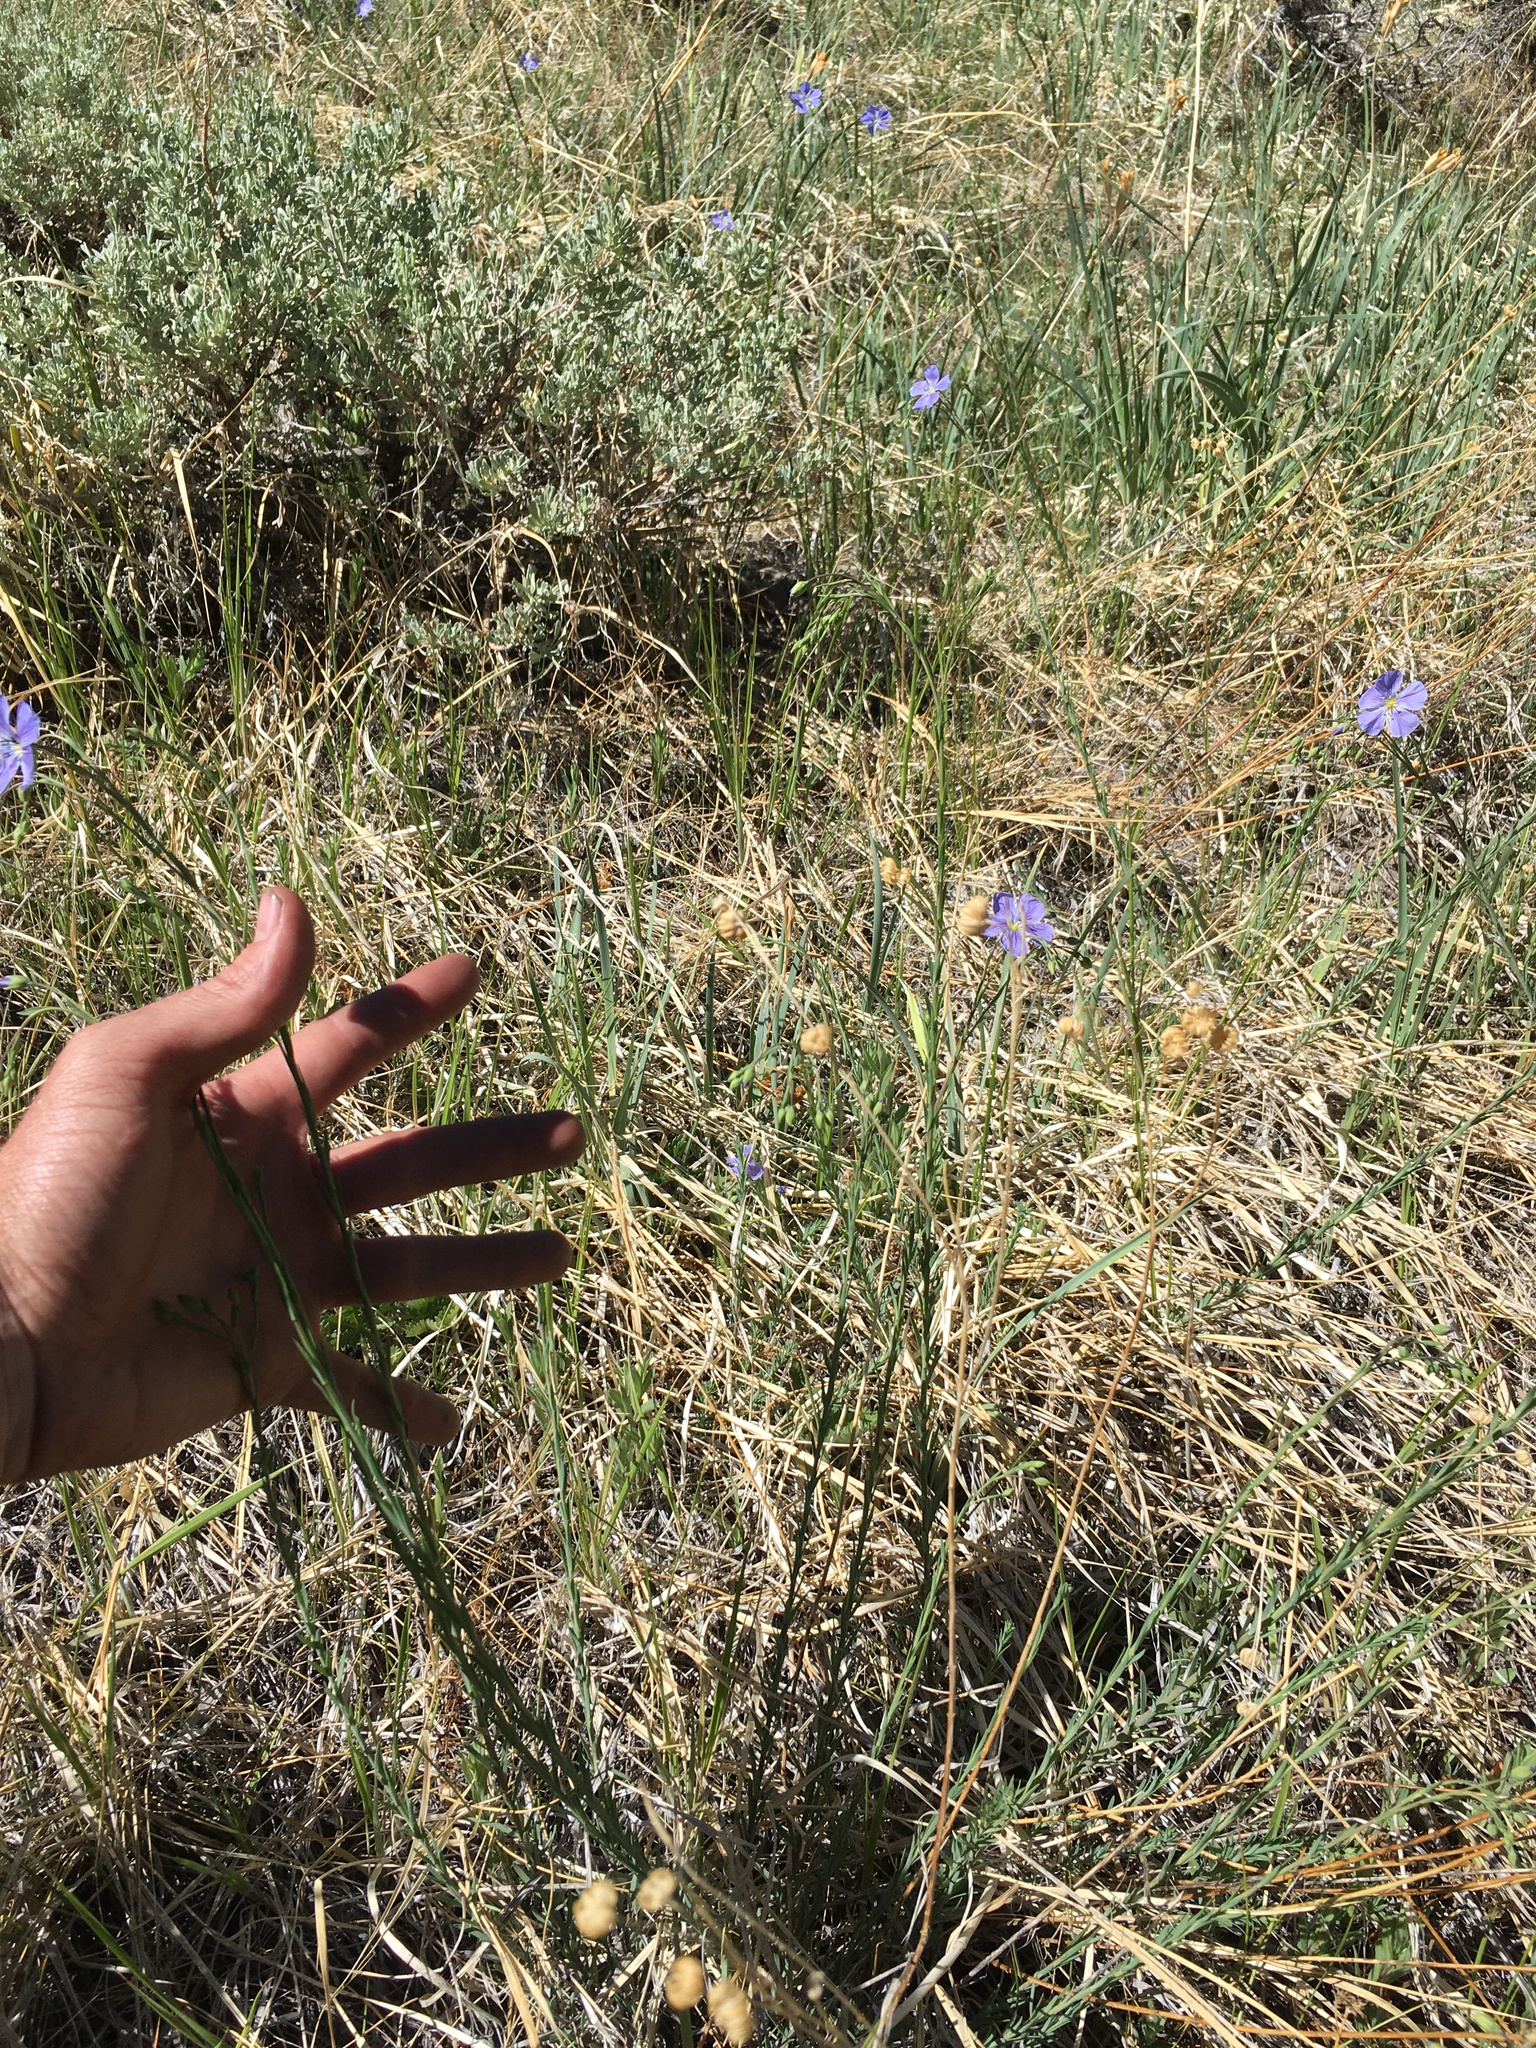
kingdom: Plantae
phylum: Tracheophyta
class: Magnoliopsida
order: Malpighiales
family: Linaceae
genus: Linum
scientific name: Linum lewisii
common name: Prairie flax
